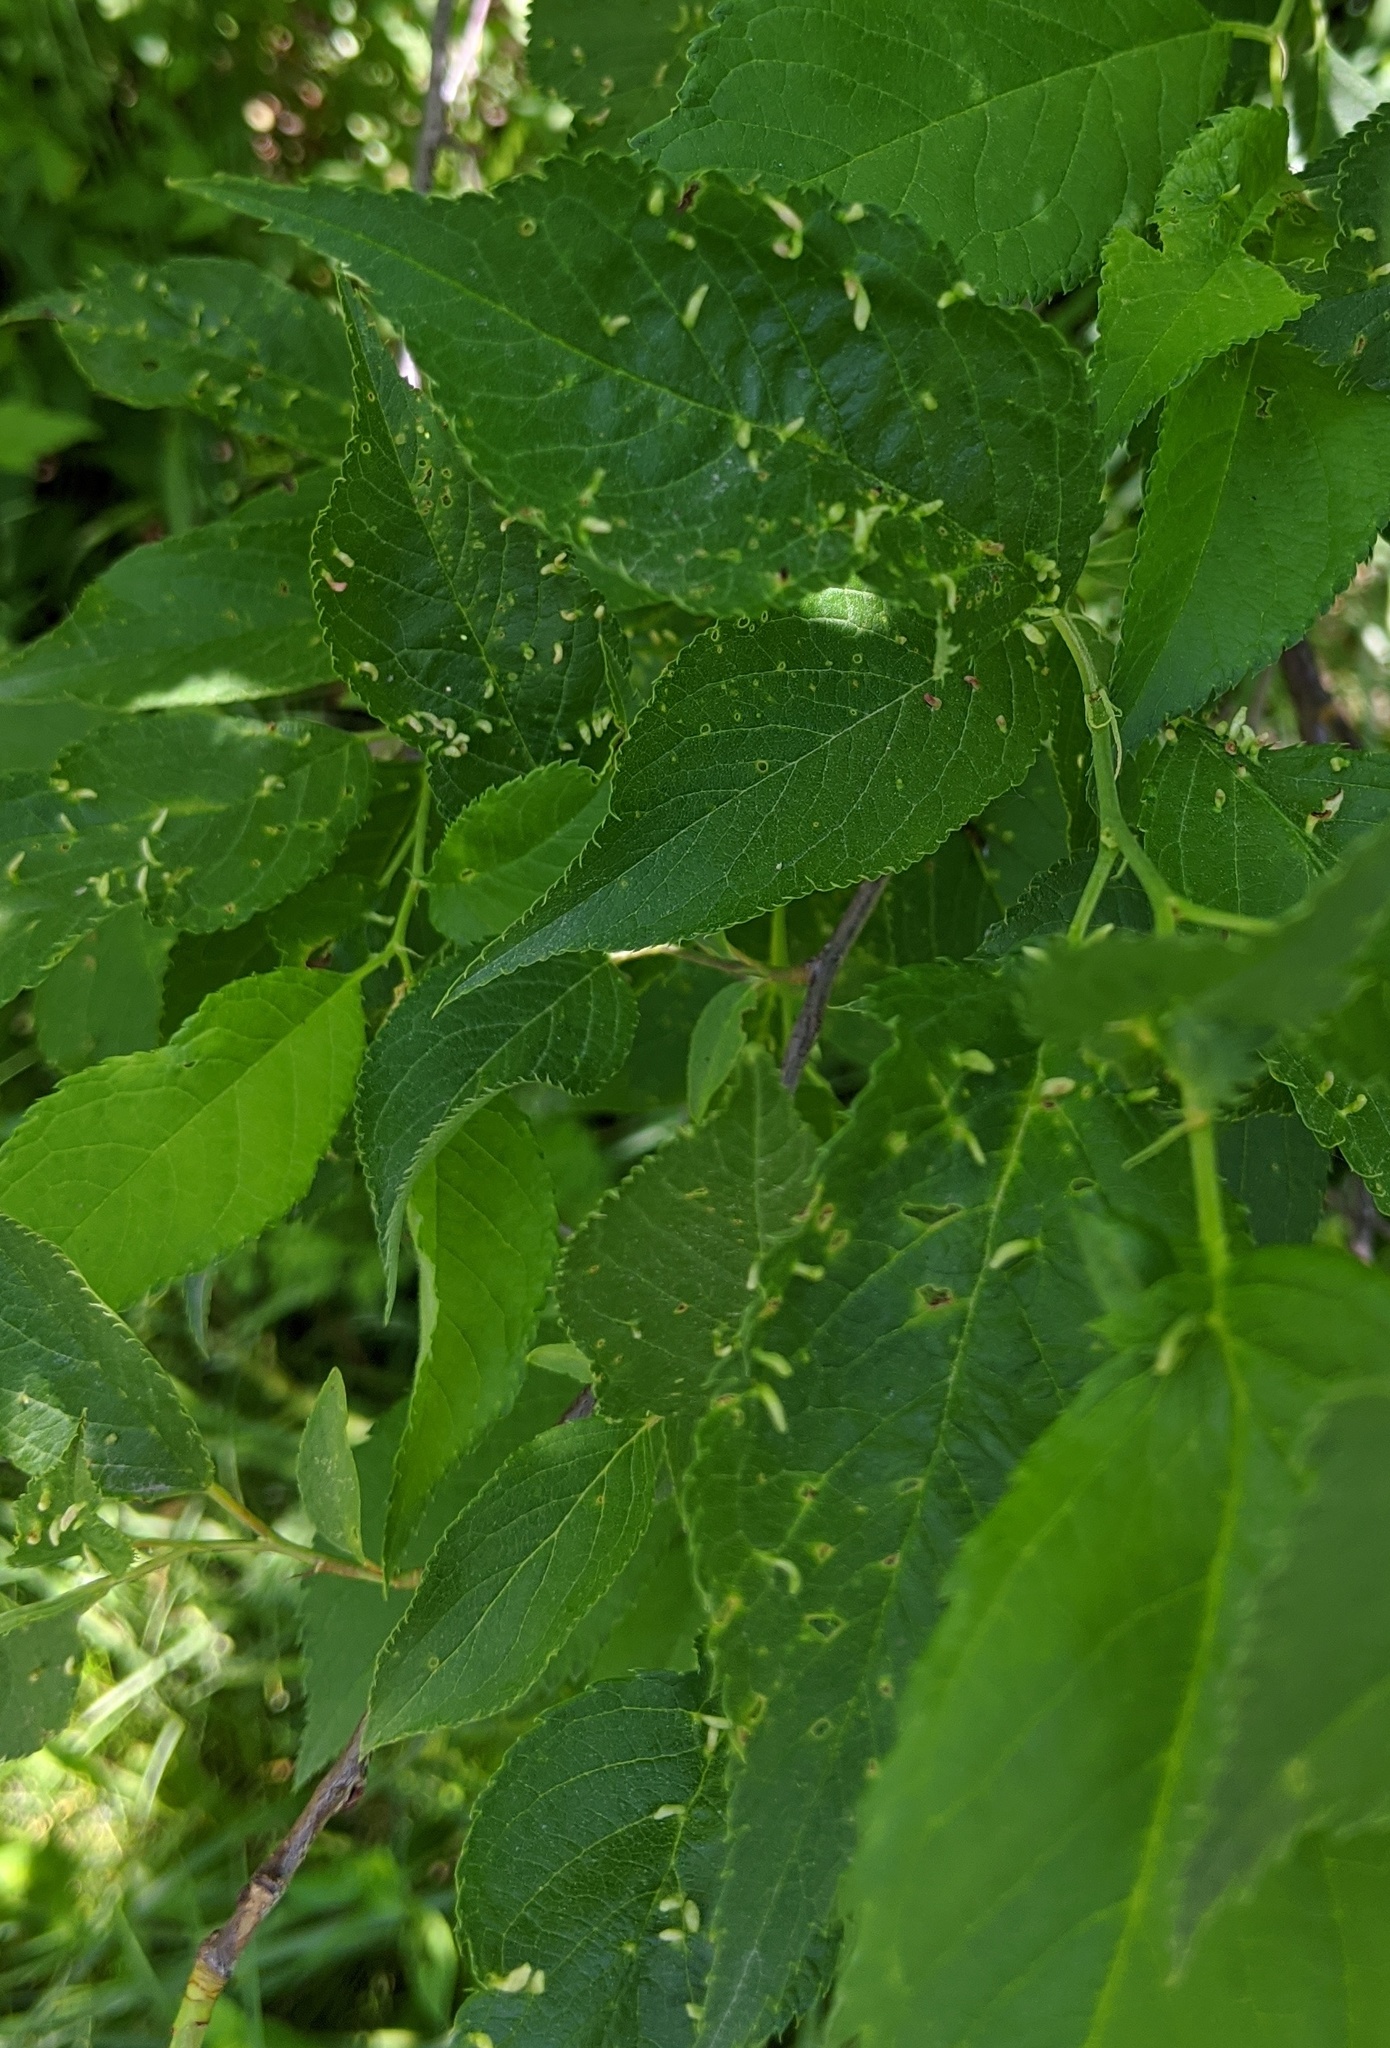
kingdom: Plantae
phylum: Tracheophyta
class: Magnoliopsida
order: Rosales
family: Rosaceae
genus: Prunus
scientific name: Prunus americana
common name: American plum
